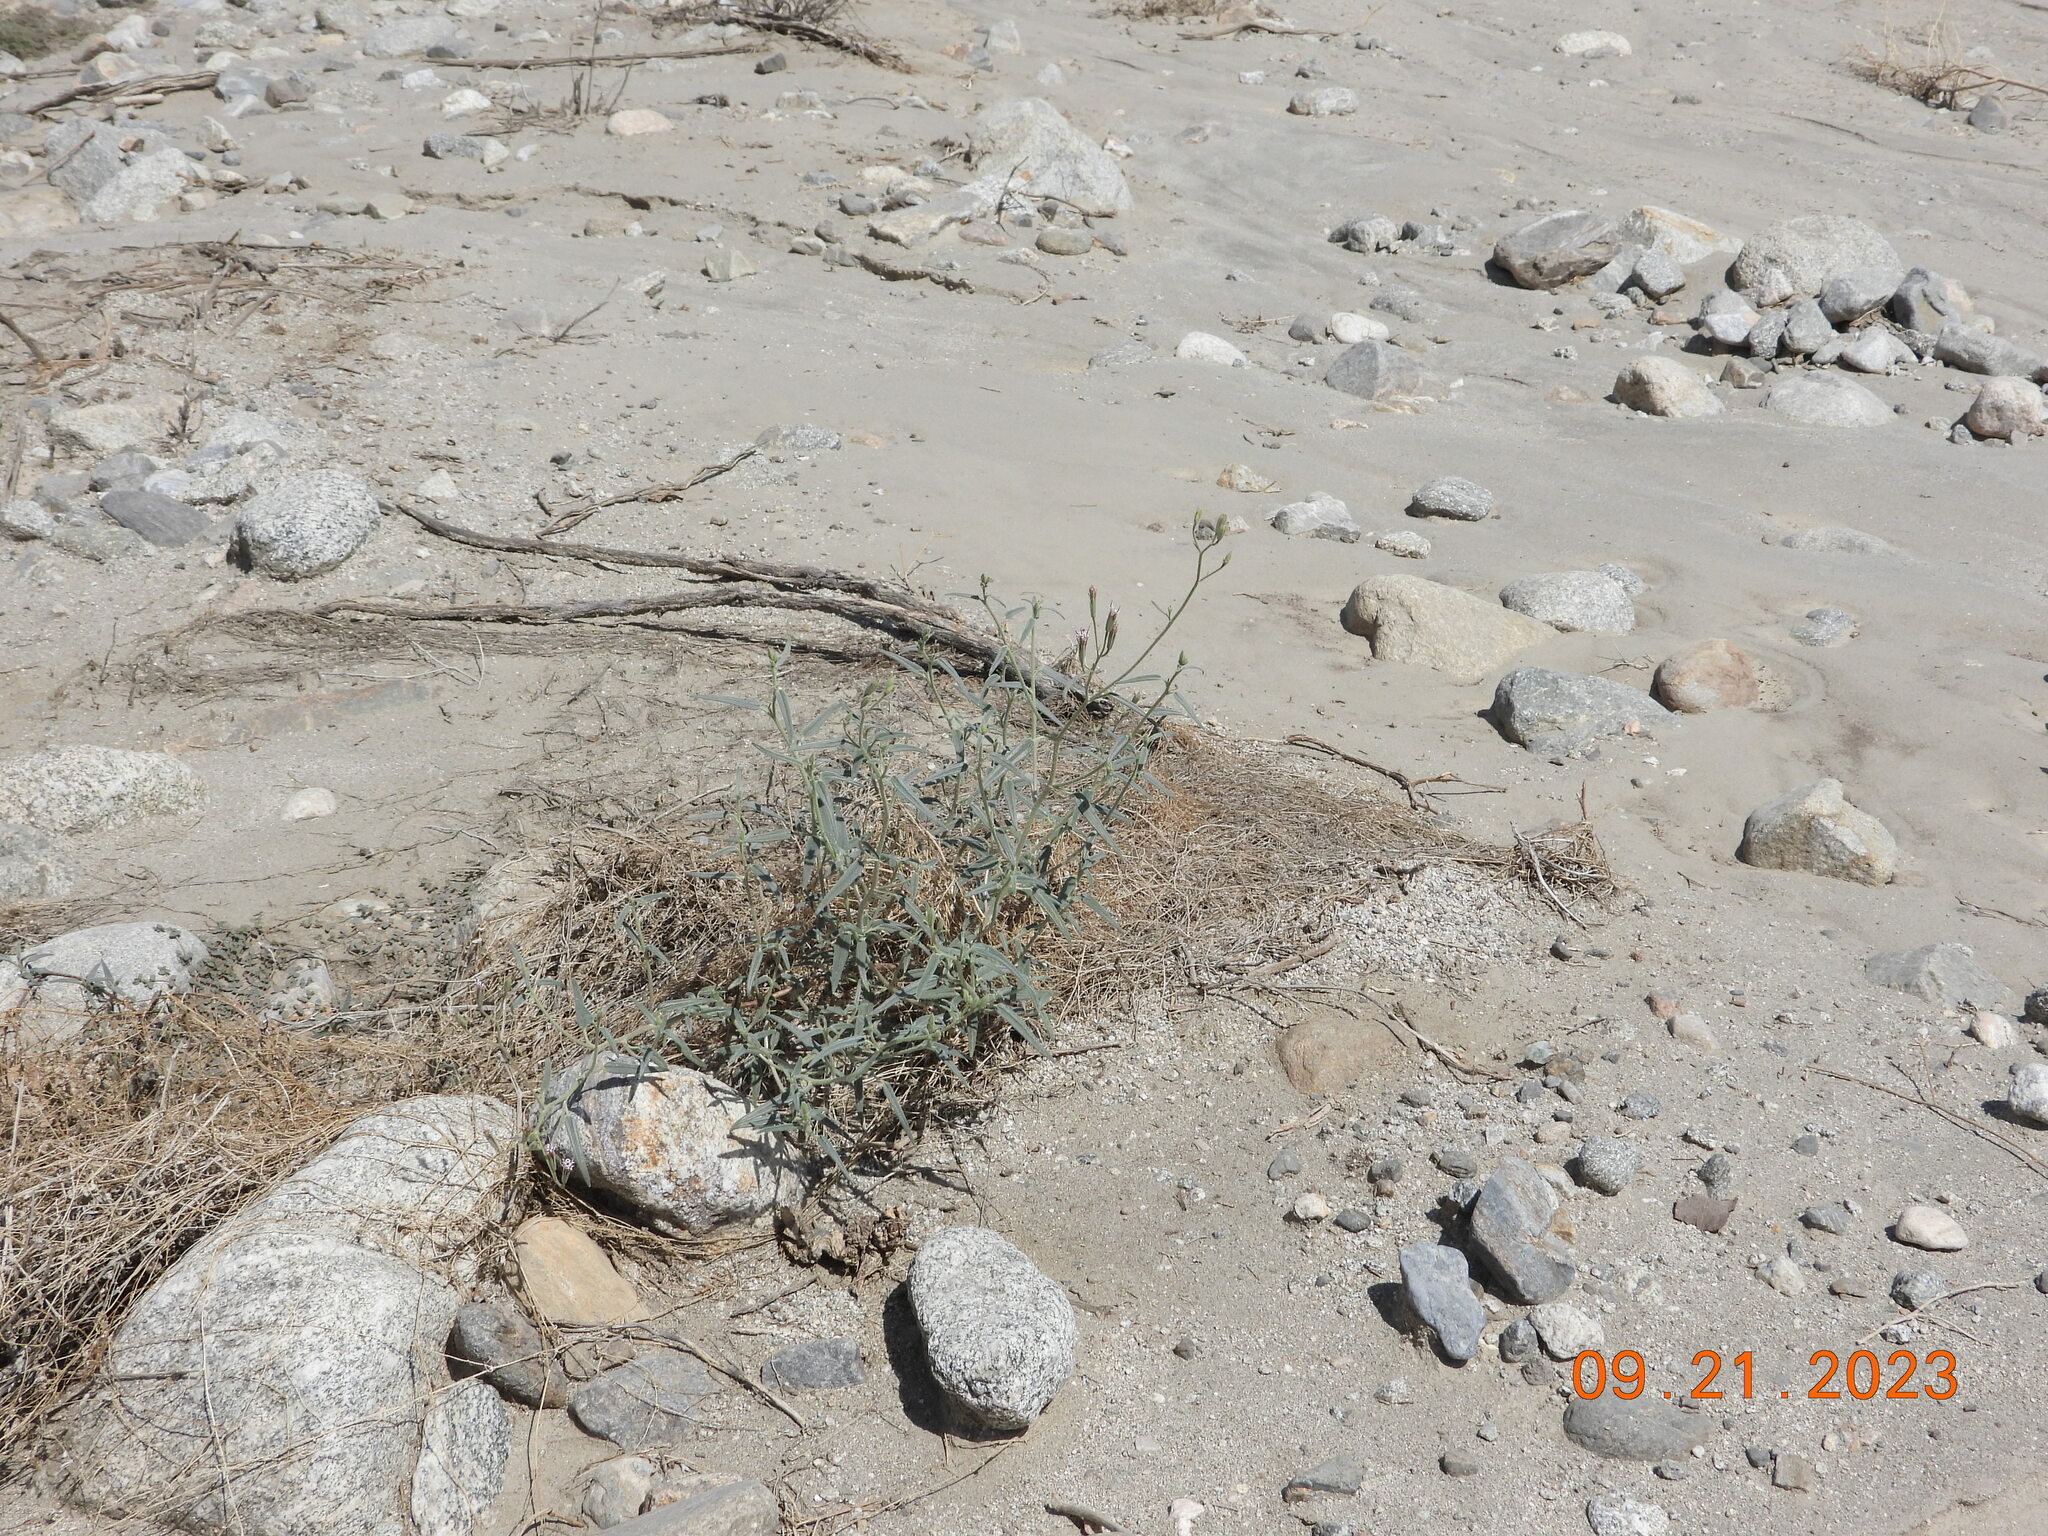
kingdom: Plantae
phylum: Tracheophyta
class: Magnoliopsida
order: Asterales
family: Asteraceae
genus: Palafoxia
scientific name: Palafoxia arida
